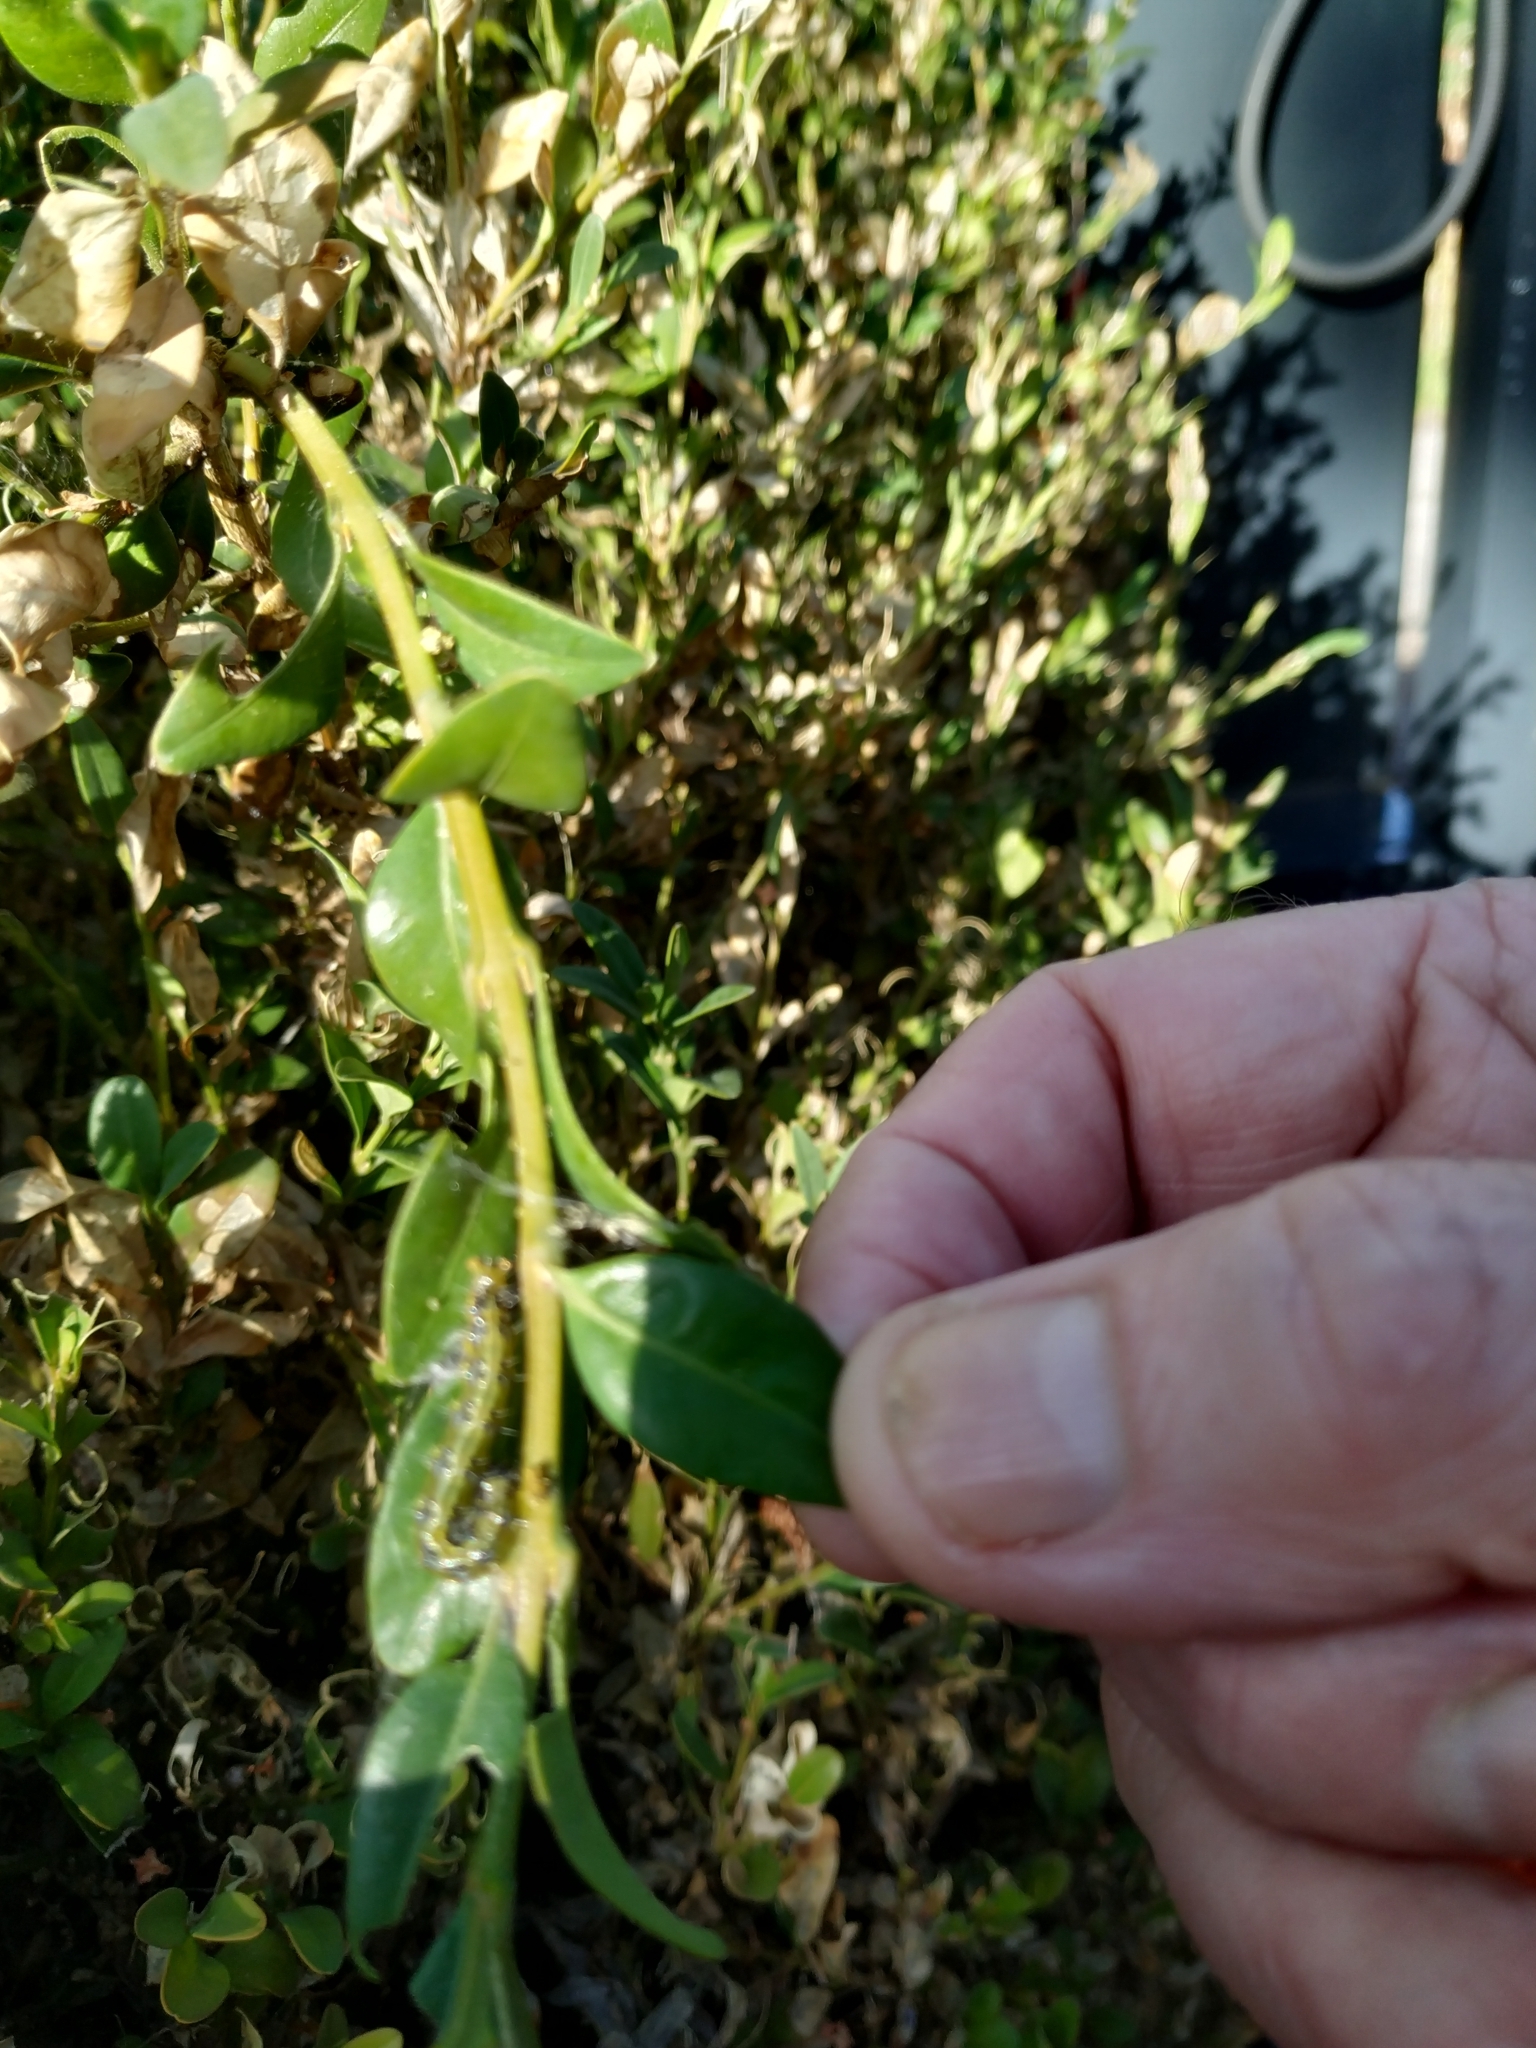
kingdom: Animalia
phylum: Arthropoda
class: Insecta
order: Lepidoptera
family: Crambidae
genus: Cydalima
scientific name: Cydalima perspectalis
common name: Box tree moth
